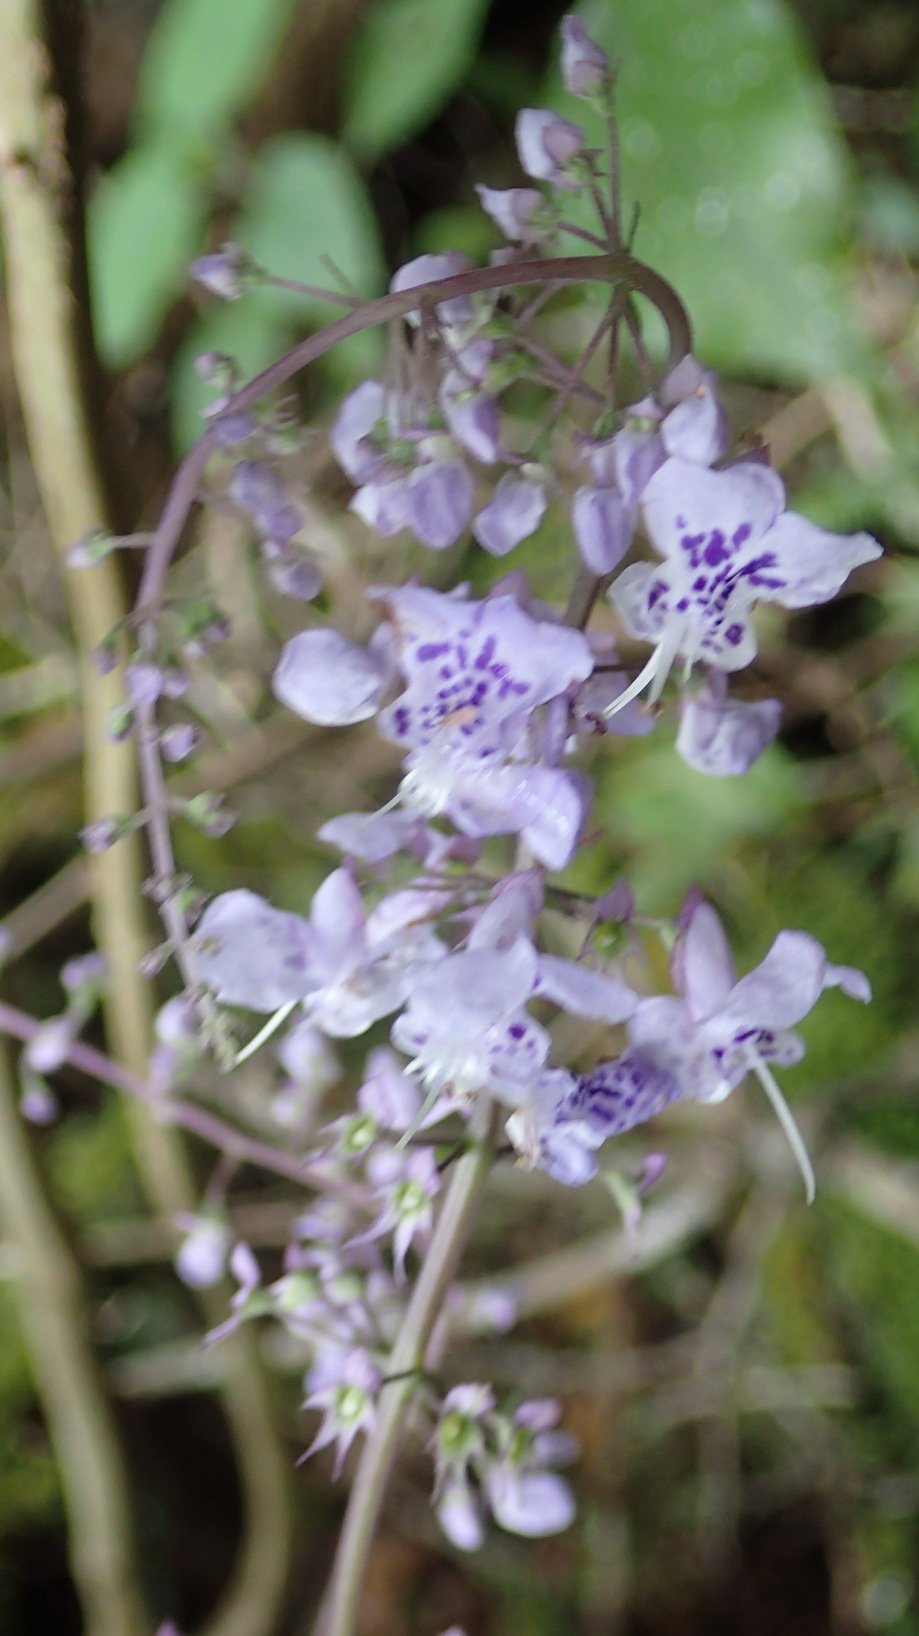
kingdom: Plantae
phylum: Tracheophyta
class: Magnoliopsida
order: Lamiales
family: Lamiaceae
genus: Plectranthus
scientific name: Plectranthus fruticosus
